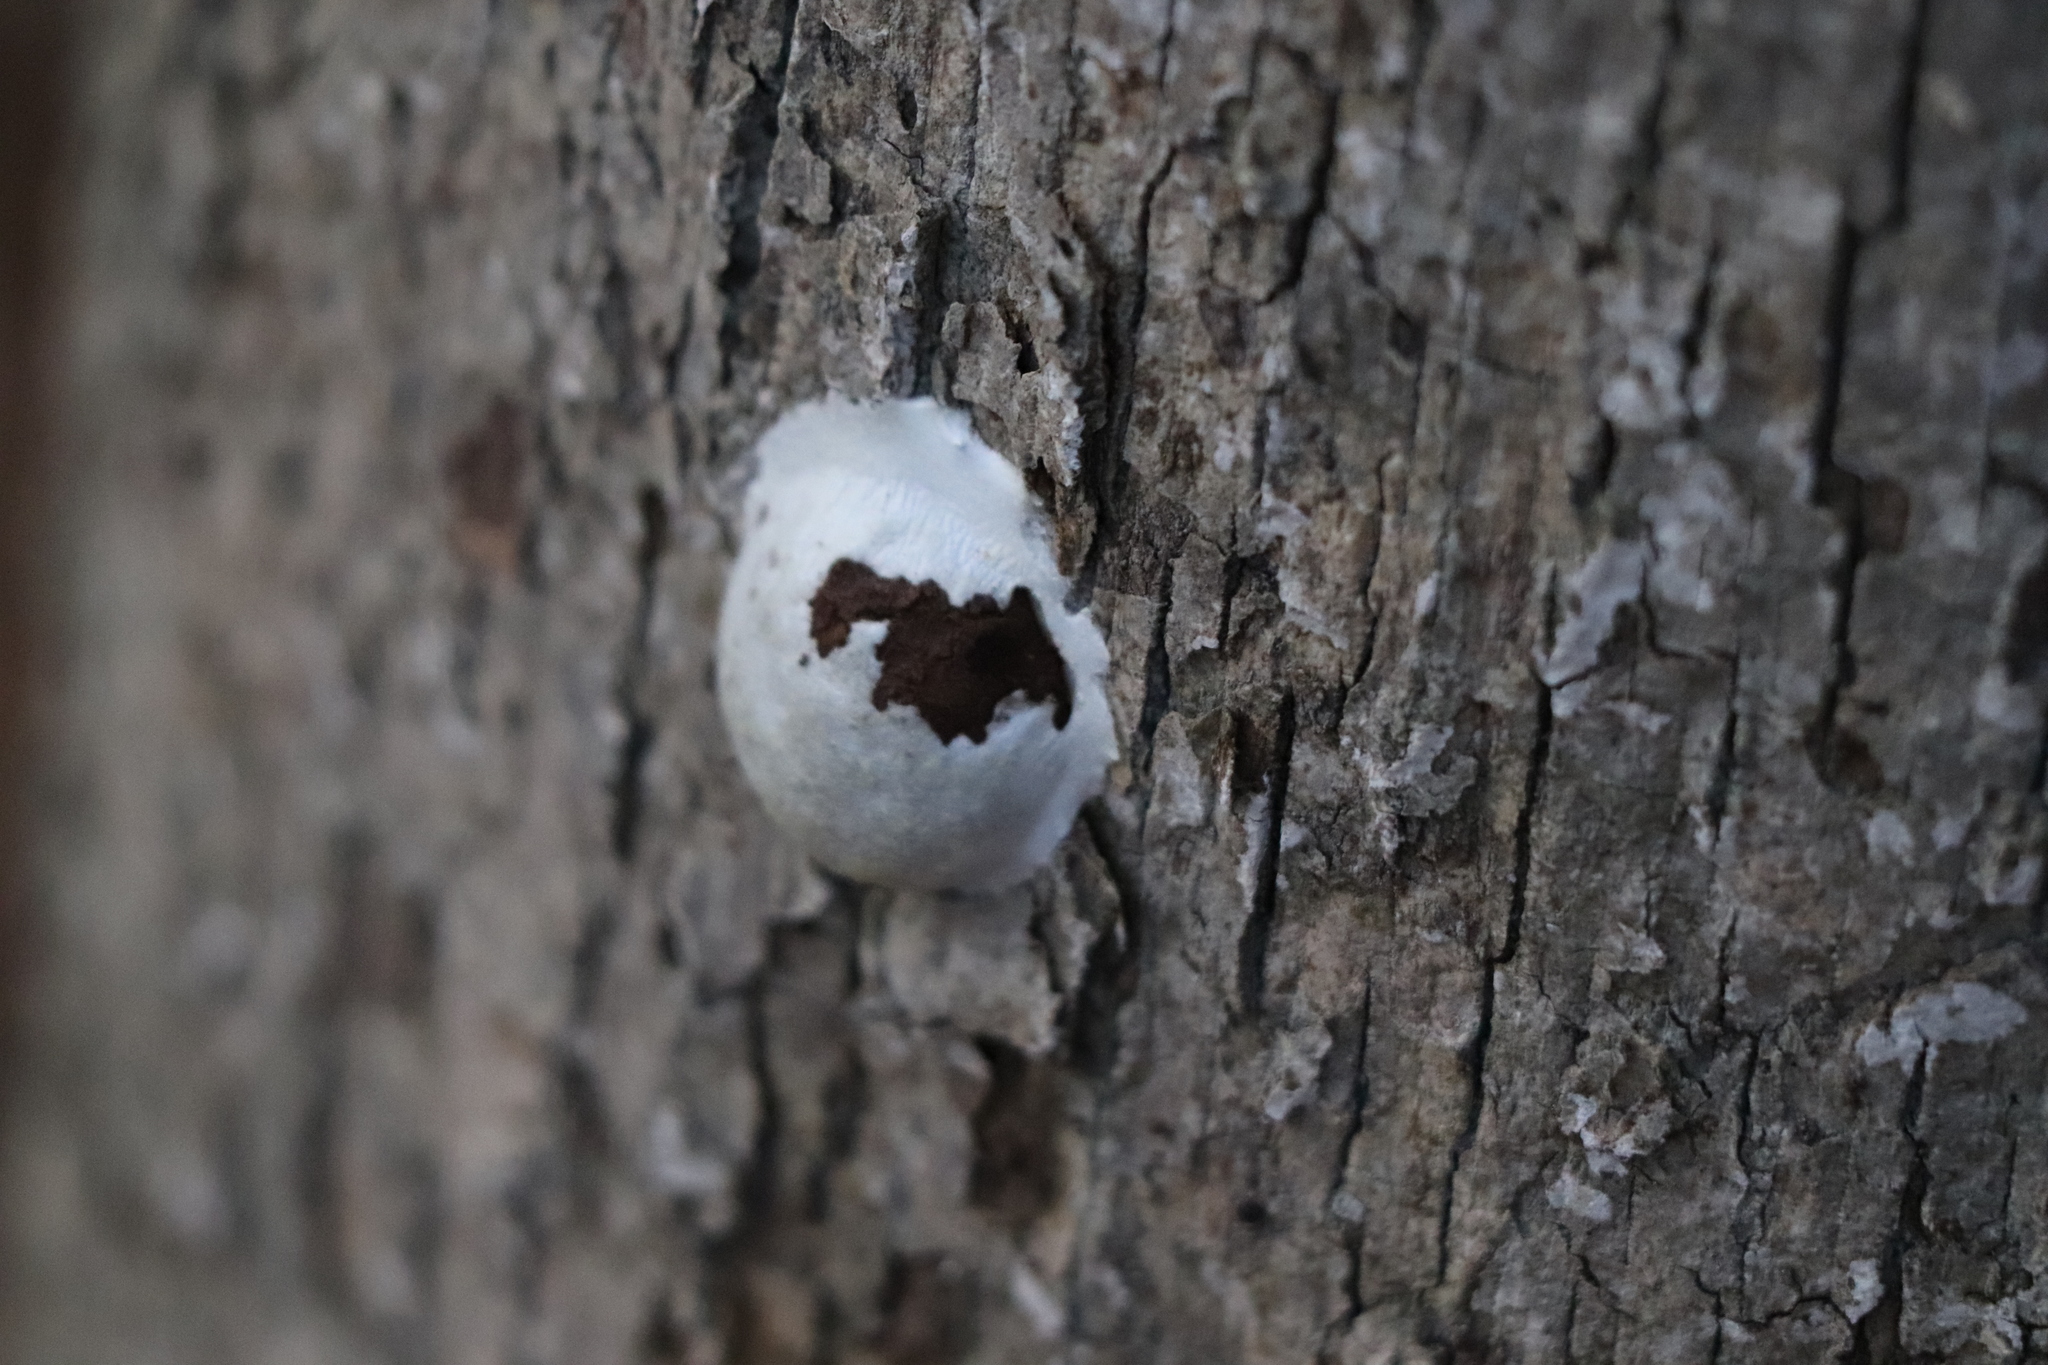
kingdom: Protozoa
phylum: Mycetozoa
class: Myxomycetes
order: Cribrariales
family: Tubiferaceae
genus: Reticularia
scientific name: Reticularia lycoperdon
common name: False puffball
